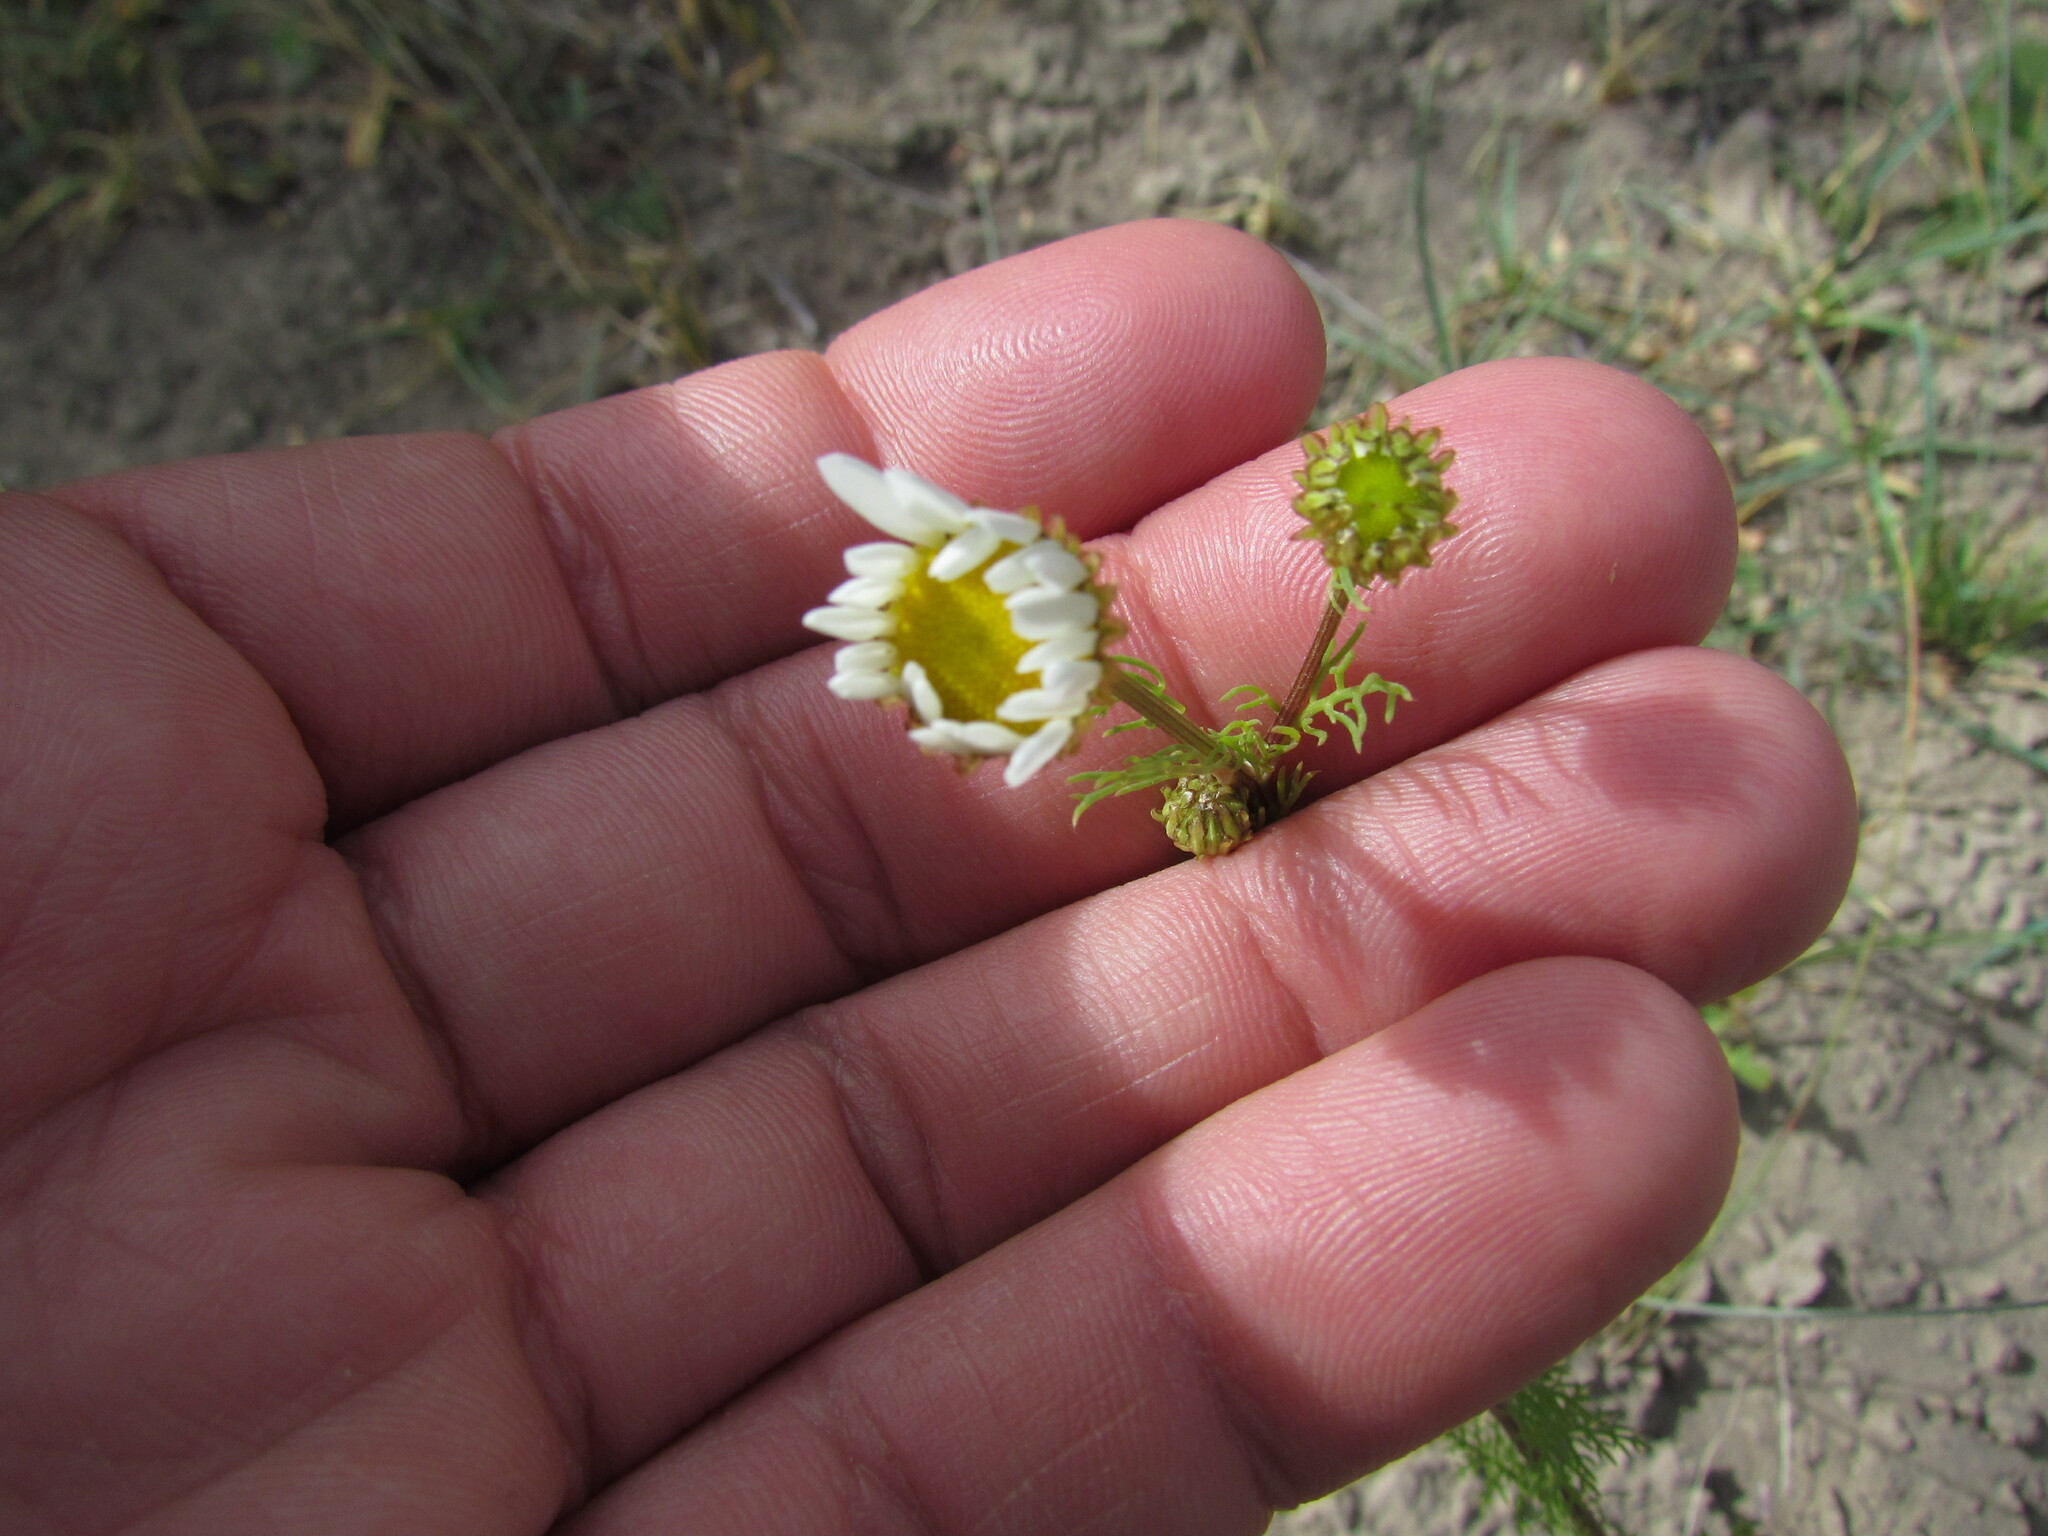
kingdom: Plantae
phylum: Tracheophyta
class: Magnoliopsida
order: Asterales
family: Asteraceae
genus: Leucanthemum
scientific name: Leucanthemum vulgare
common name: Oxeye daisy
